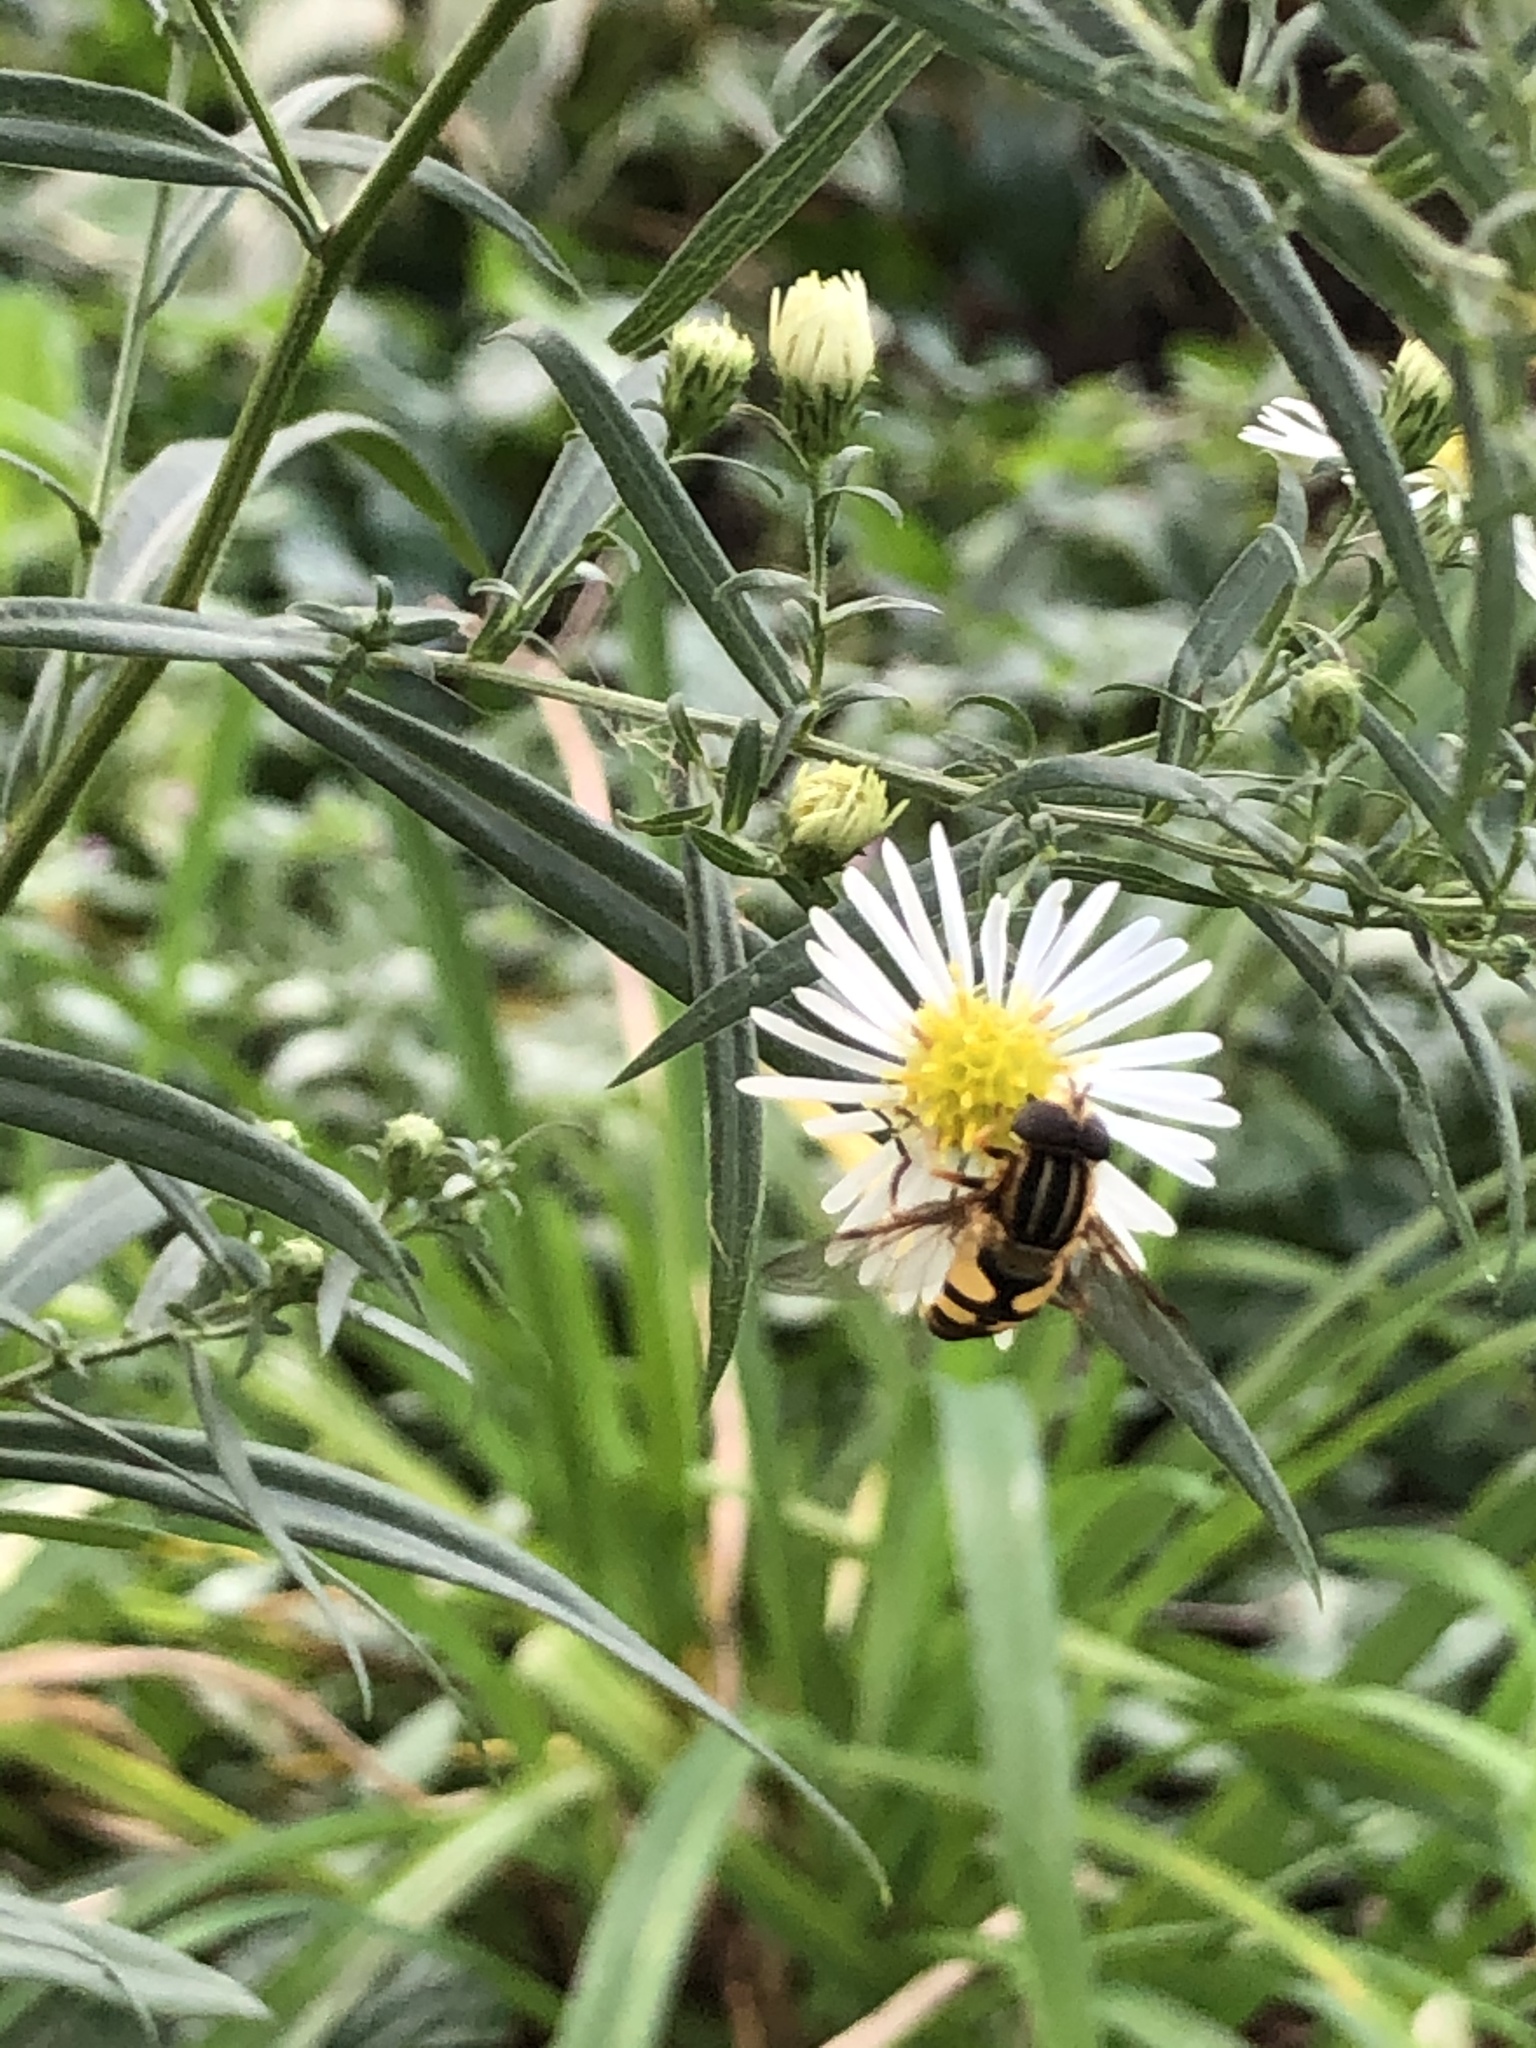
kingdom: Animalia
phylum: Arthropoda
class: Insecta
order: Diptera
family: Syrphidae
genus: Helophilus
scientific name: Helophilus fasciatus
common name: Narrow-headed marsh fly
